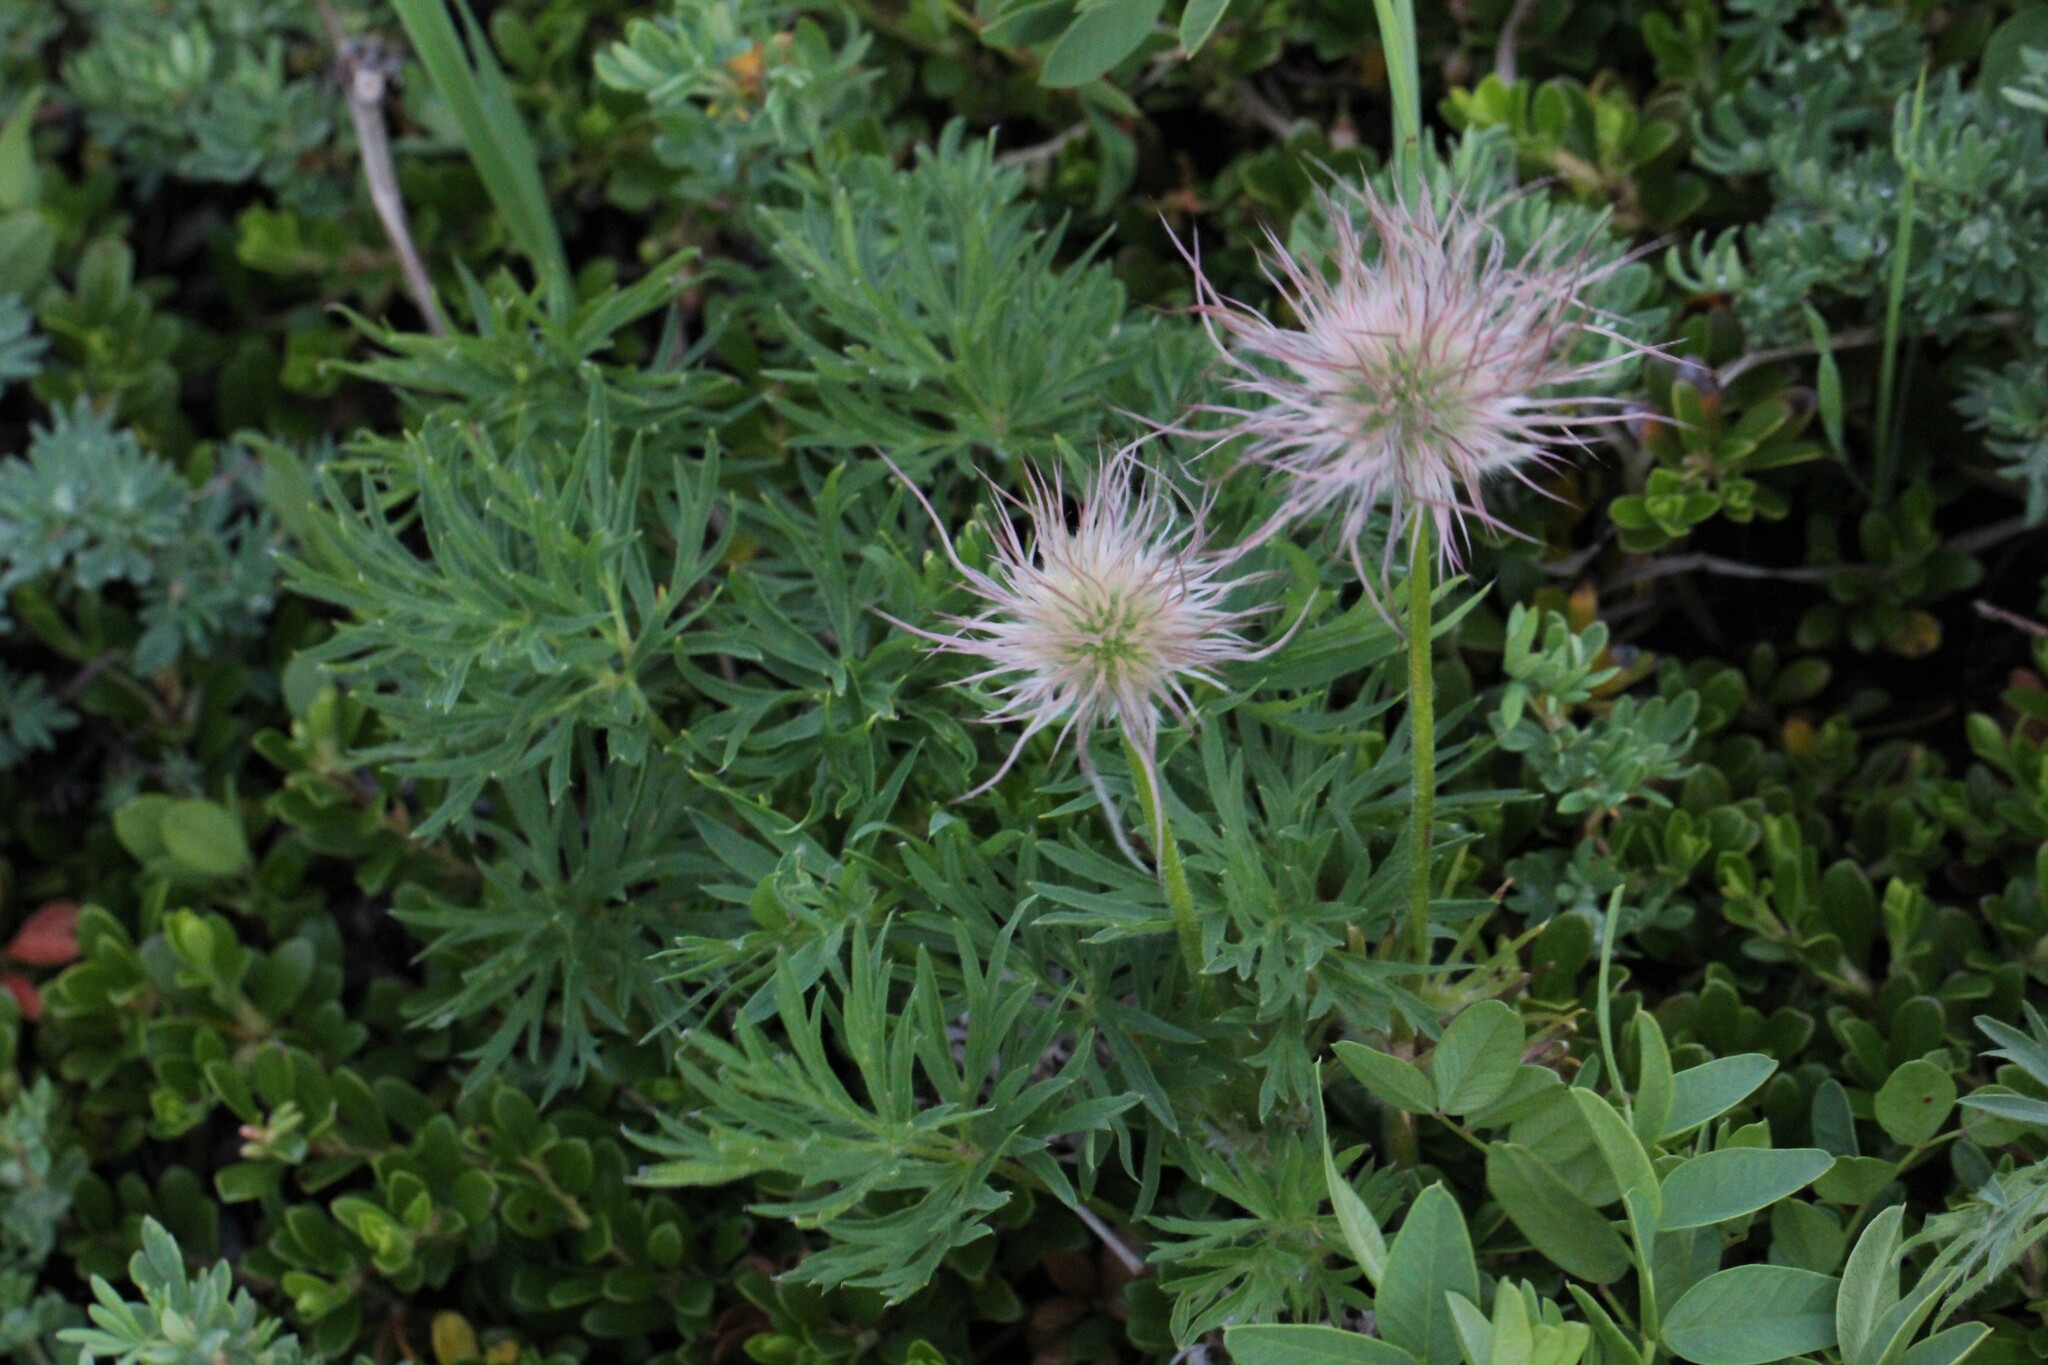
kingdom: Plantae
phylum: Tracheophyta
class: Magnoliopsida
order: Ranunculales
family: Ranunculaceae
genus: Pulsatilla
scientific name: Pulsatilla nuttalliana
